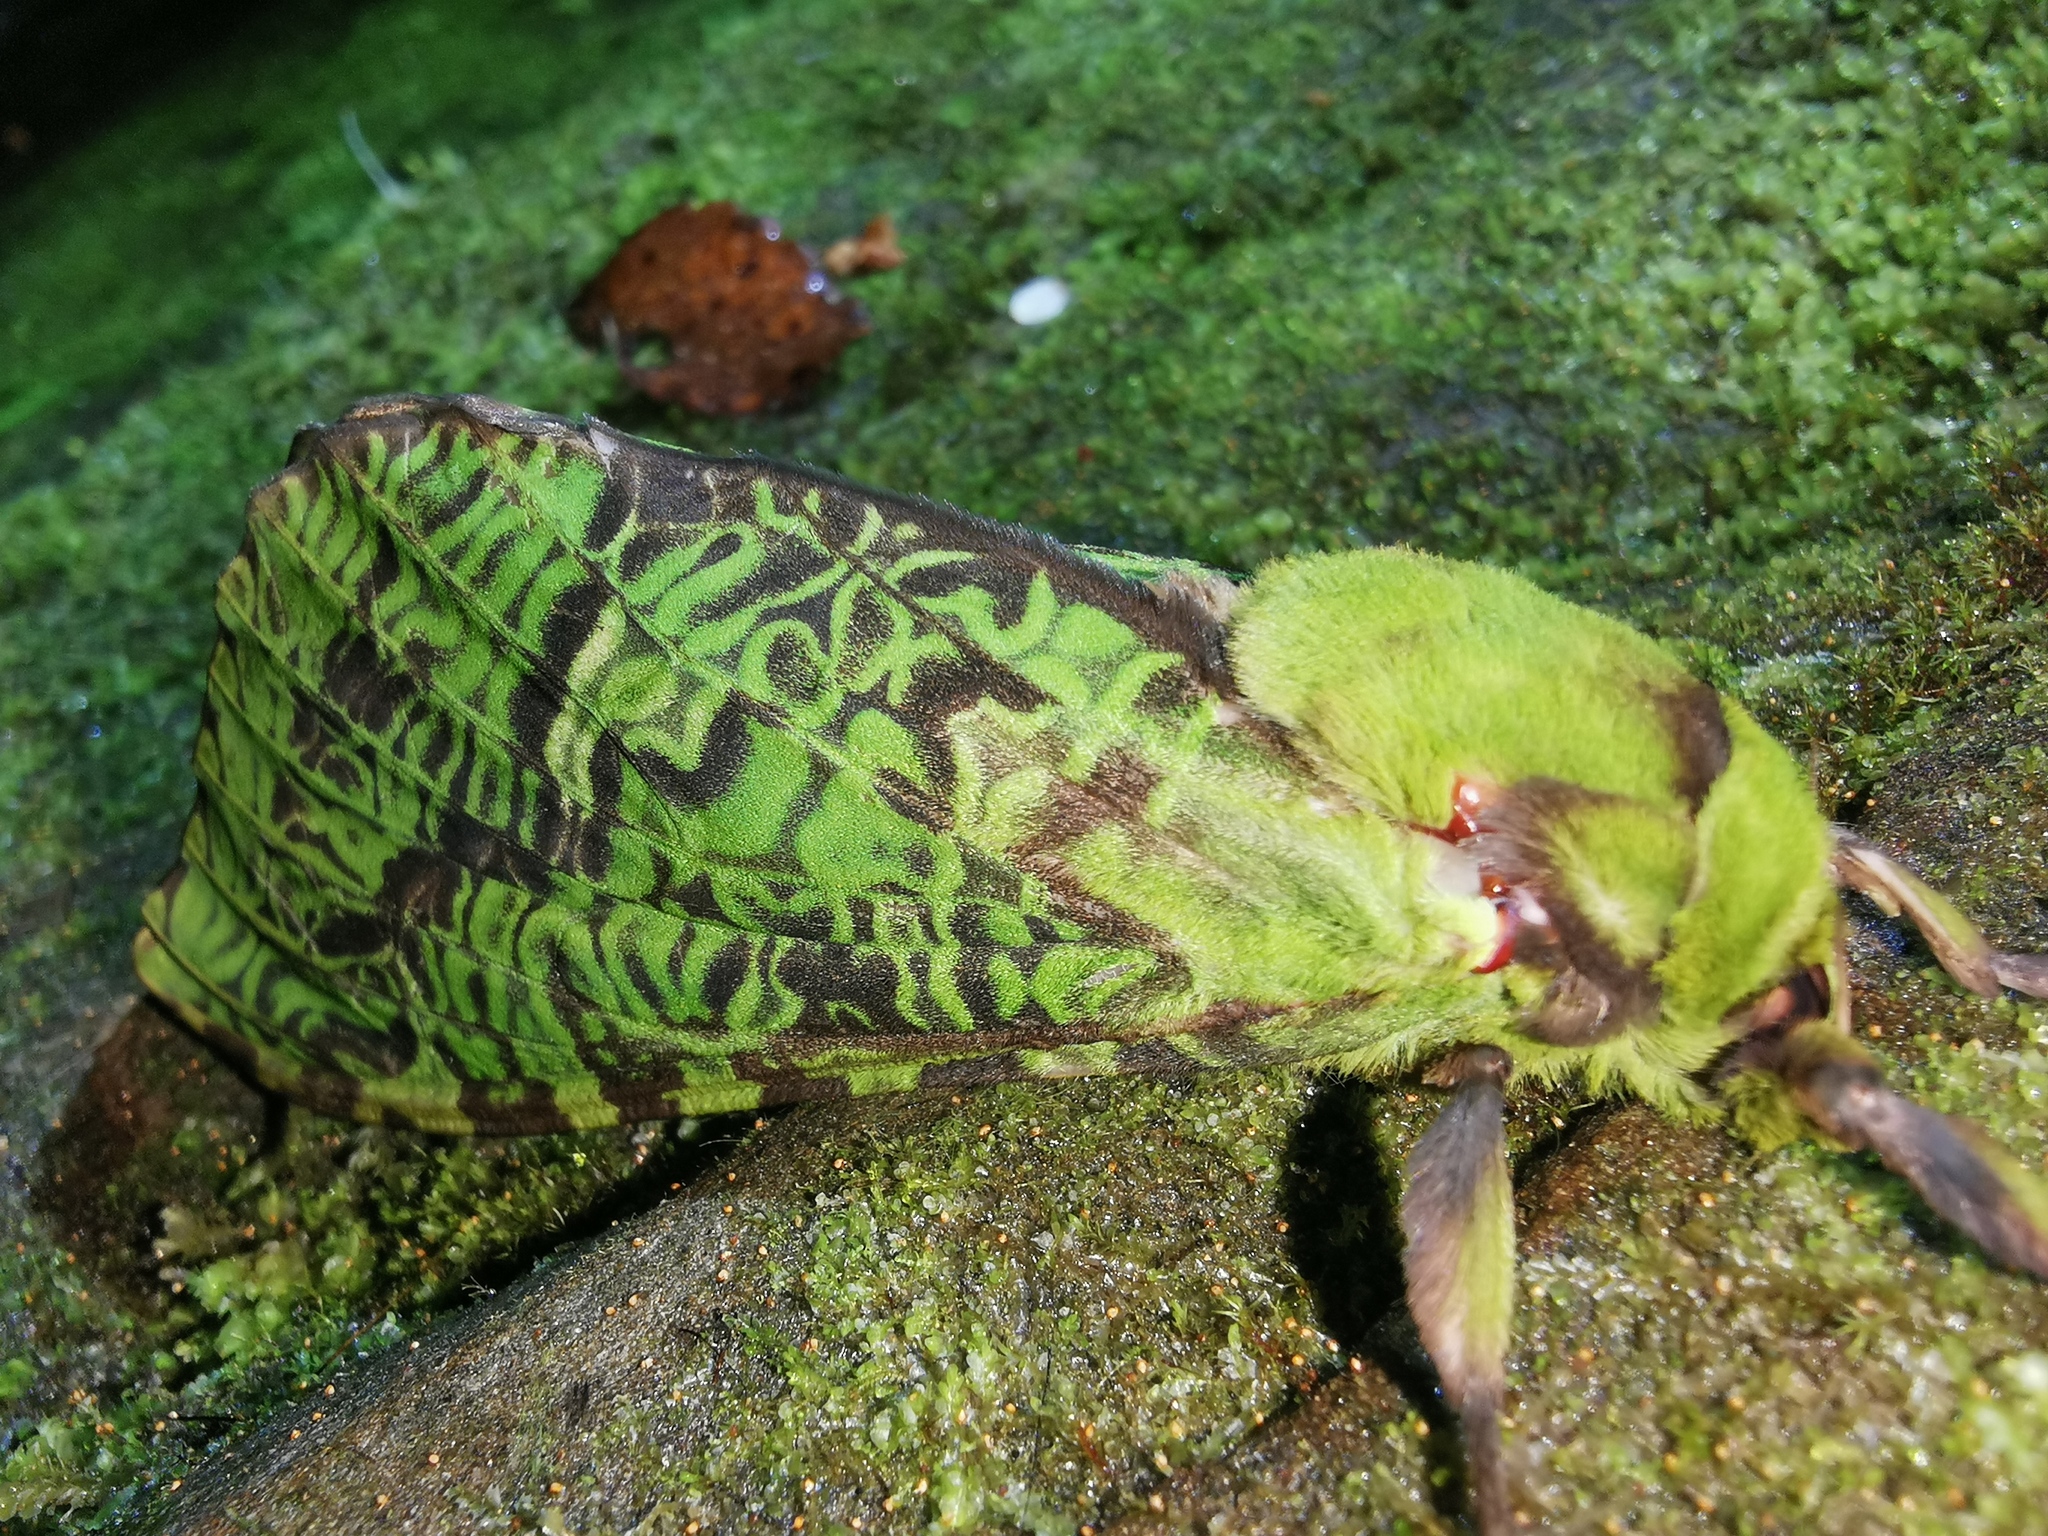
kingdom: Animalia
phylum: Arthropoda
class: Insecta
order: Lepidoptera
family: Hepialidae
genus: Aenetus
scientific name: Aenetus virescens
